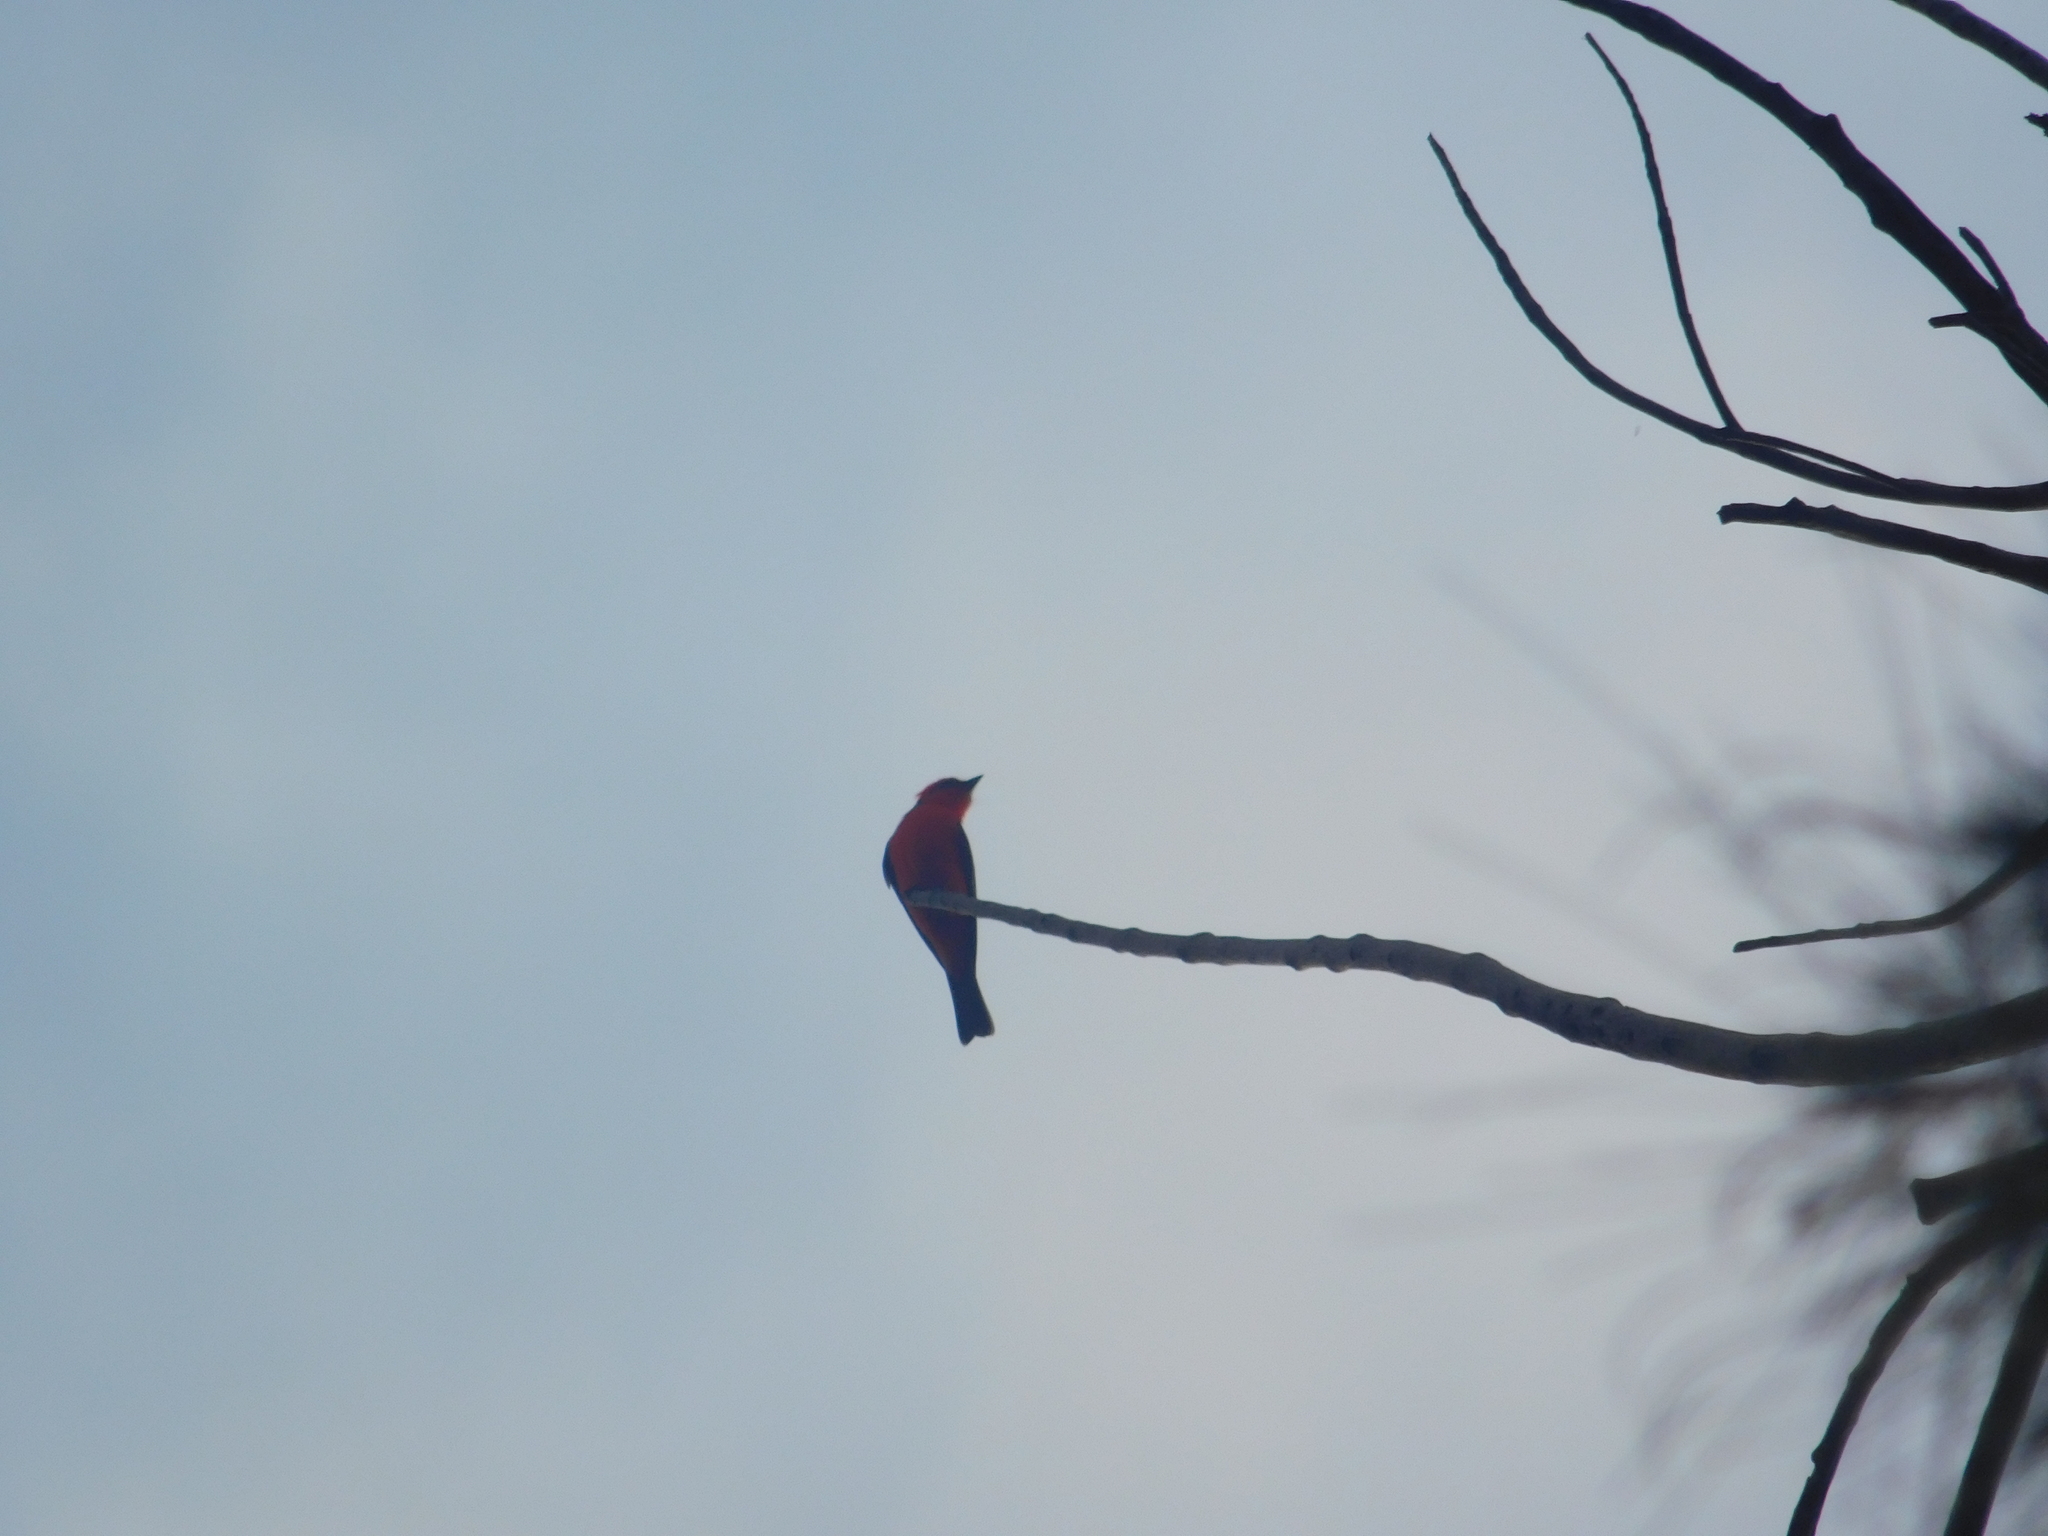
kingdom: Animalia
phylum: Chordata
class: Aves
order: Passeriformes
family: Tyrannidae
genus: Pyrocephalus
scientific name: Pyrocephalus rubinus
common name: Vermilion flycatcher
